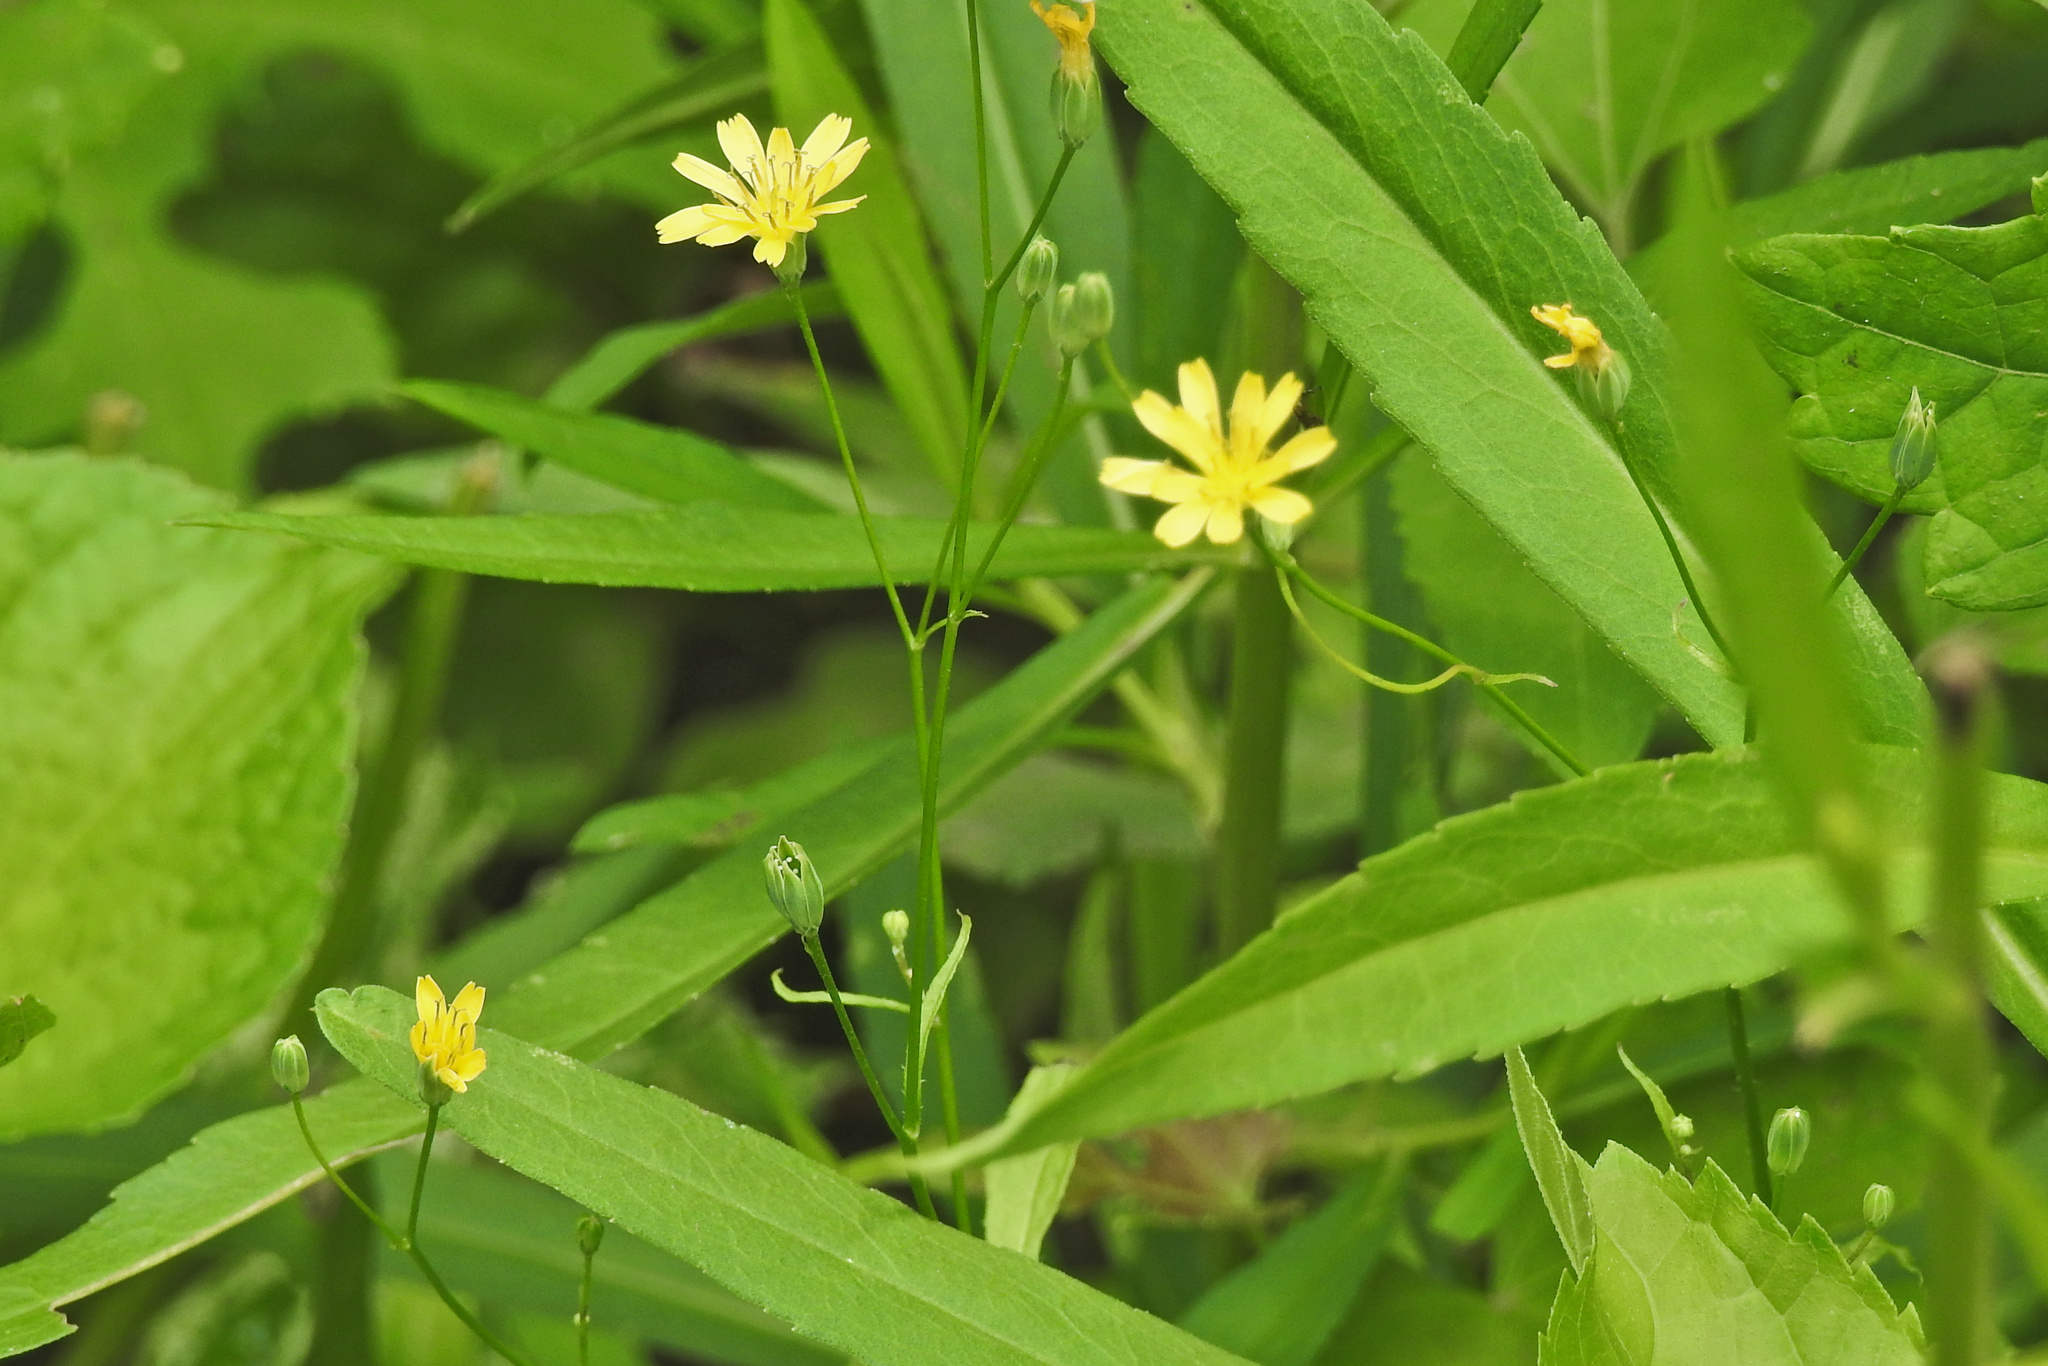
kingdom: Plantae
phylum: Tracheophyta
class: Magnoliopsida
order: Asterales
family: Asteraceae
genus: Lapsana
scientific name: Lapsana communis
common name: Nipplewort
